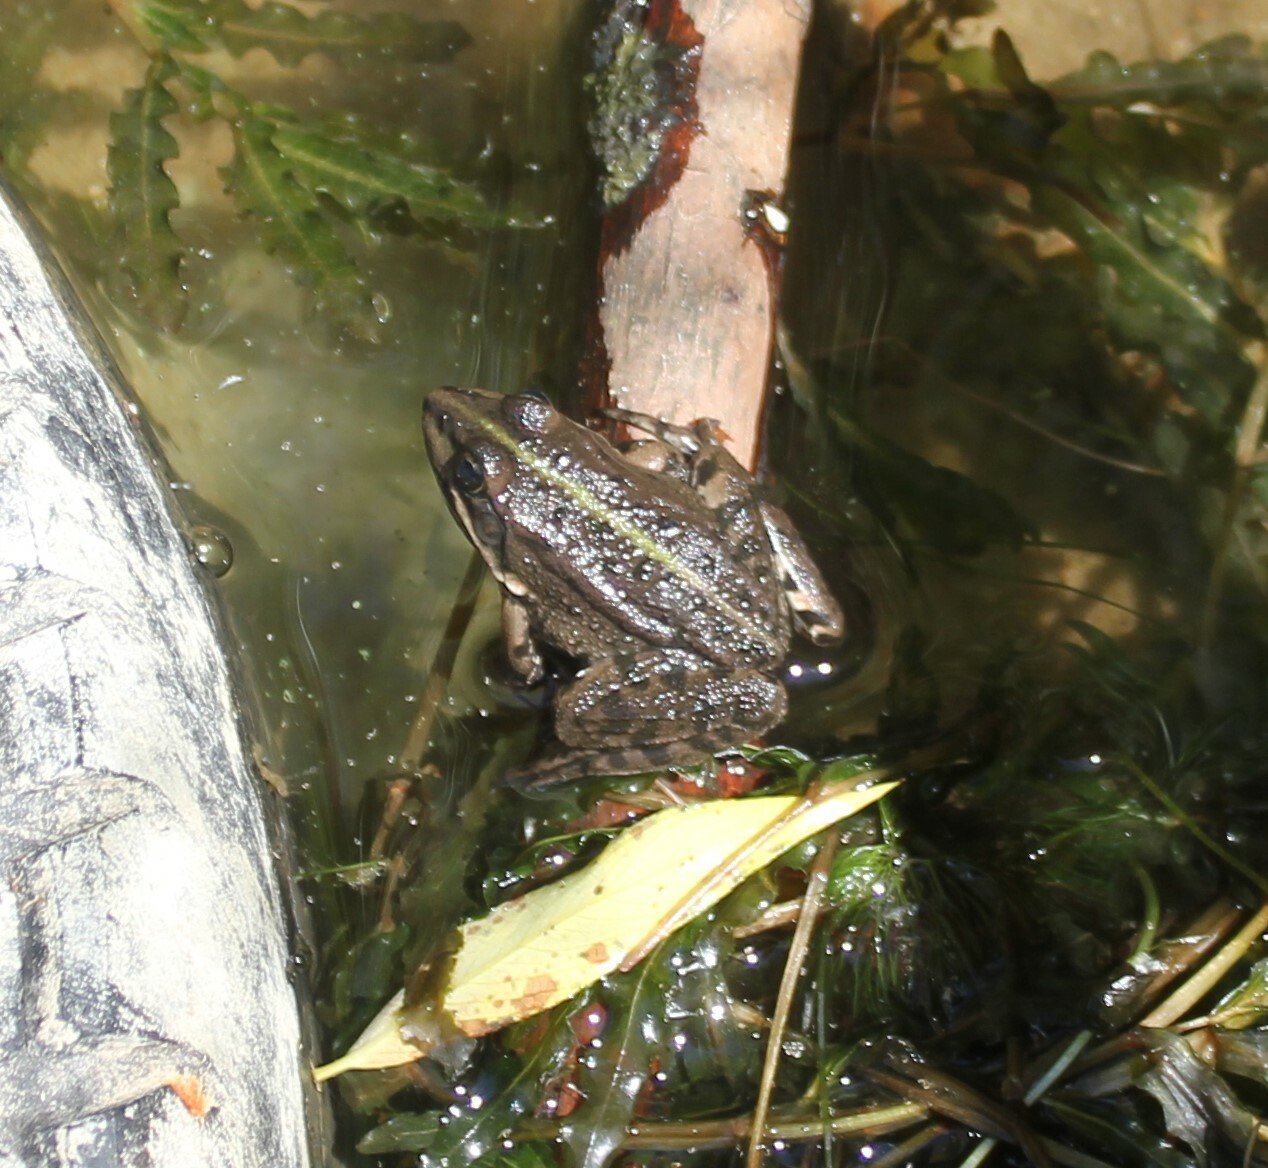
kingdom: Animalia
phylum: Chordata
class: Amphibia
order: Anura
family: Ranidae
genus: Pelophylax
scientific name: Pelophylax ridibundus
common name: Marsh frog
